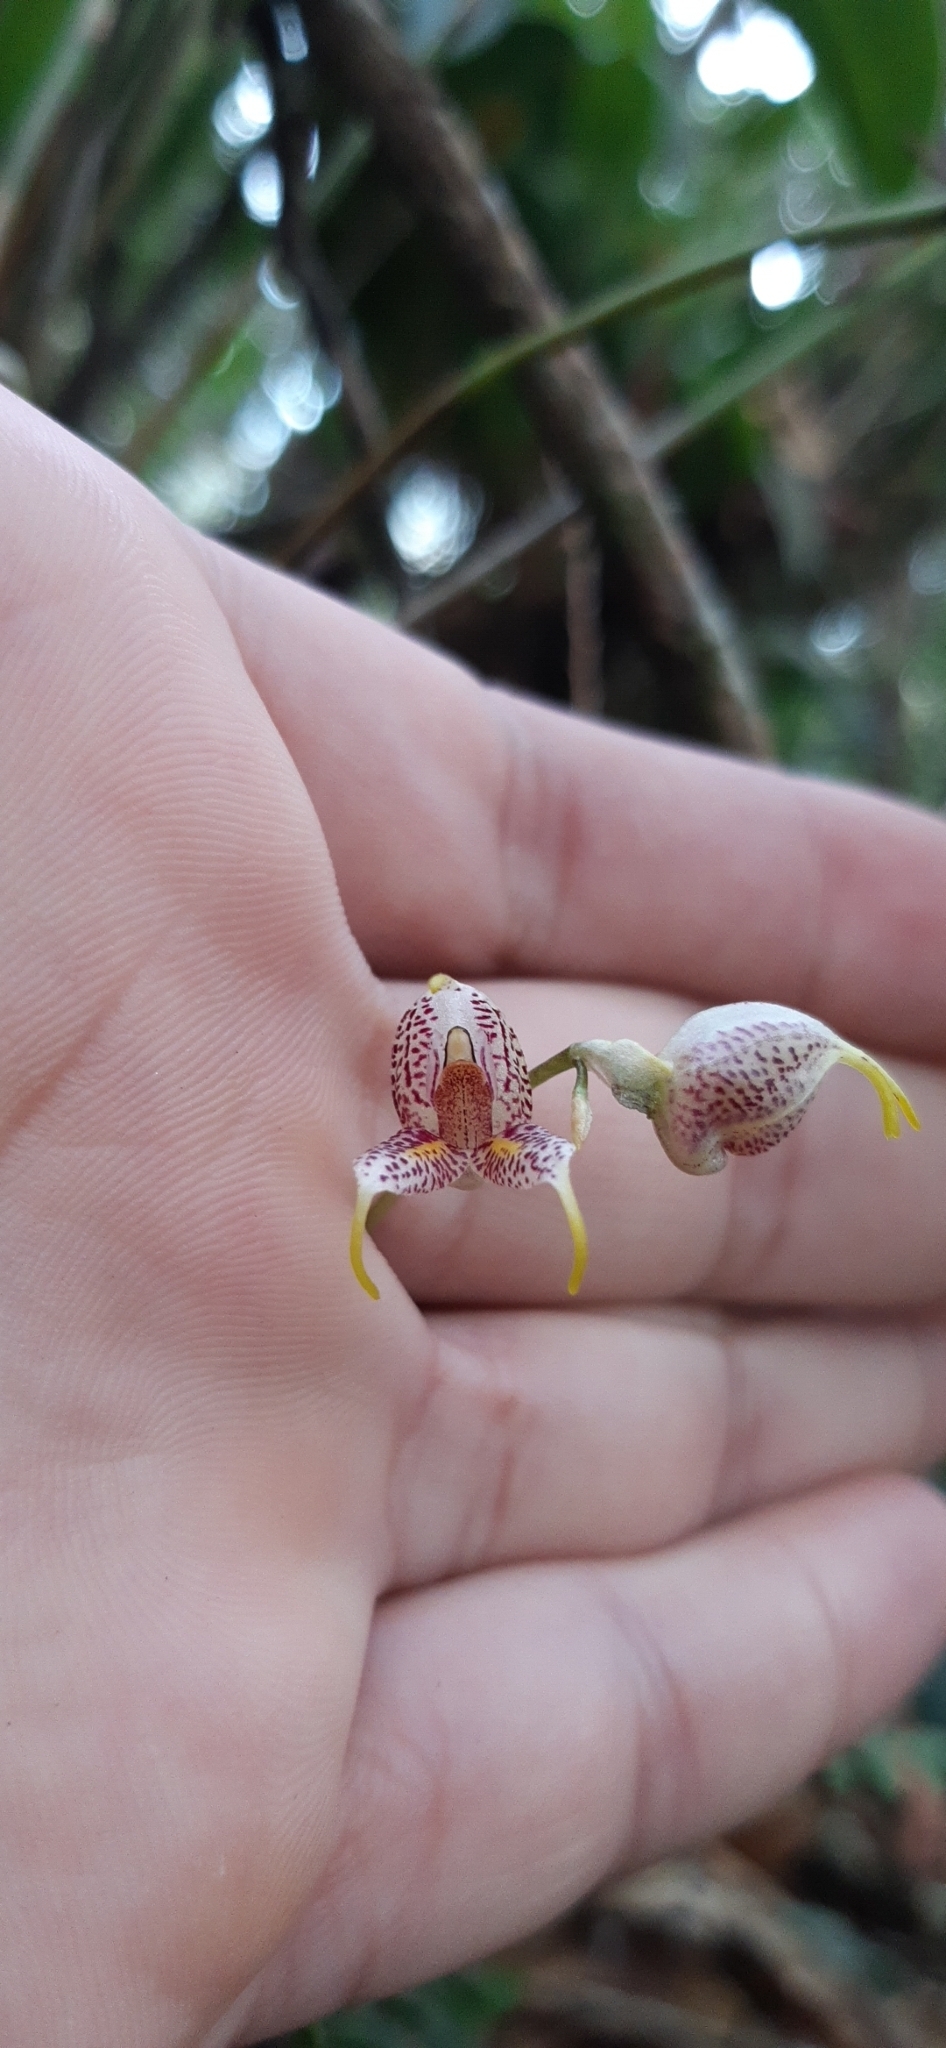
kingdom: Plantae
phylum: Tracheophyta
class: Liliopsida
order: Asparagales
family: Orchidaceae
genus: Masdevallia
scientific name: Masdevallia amanda
